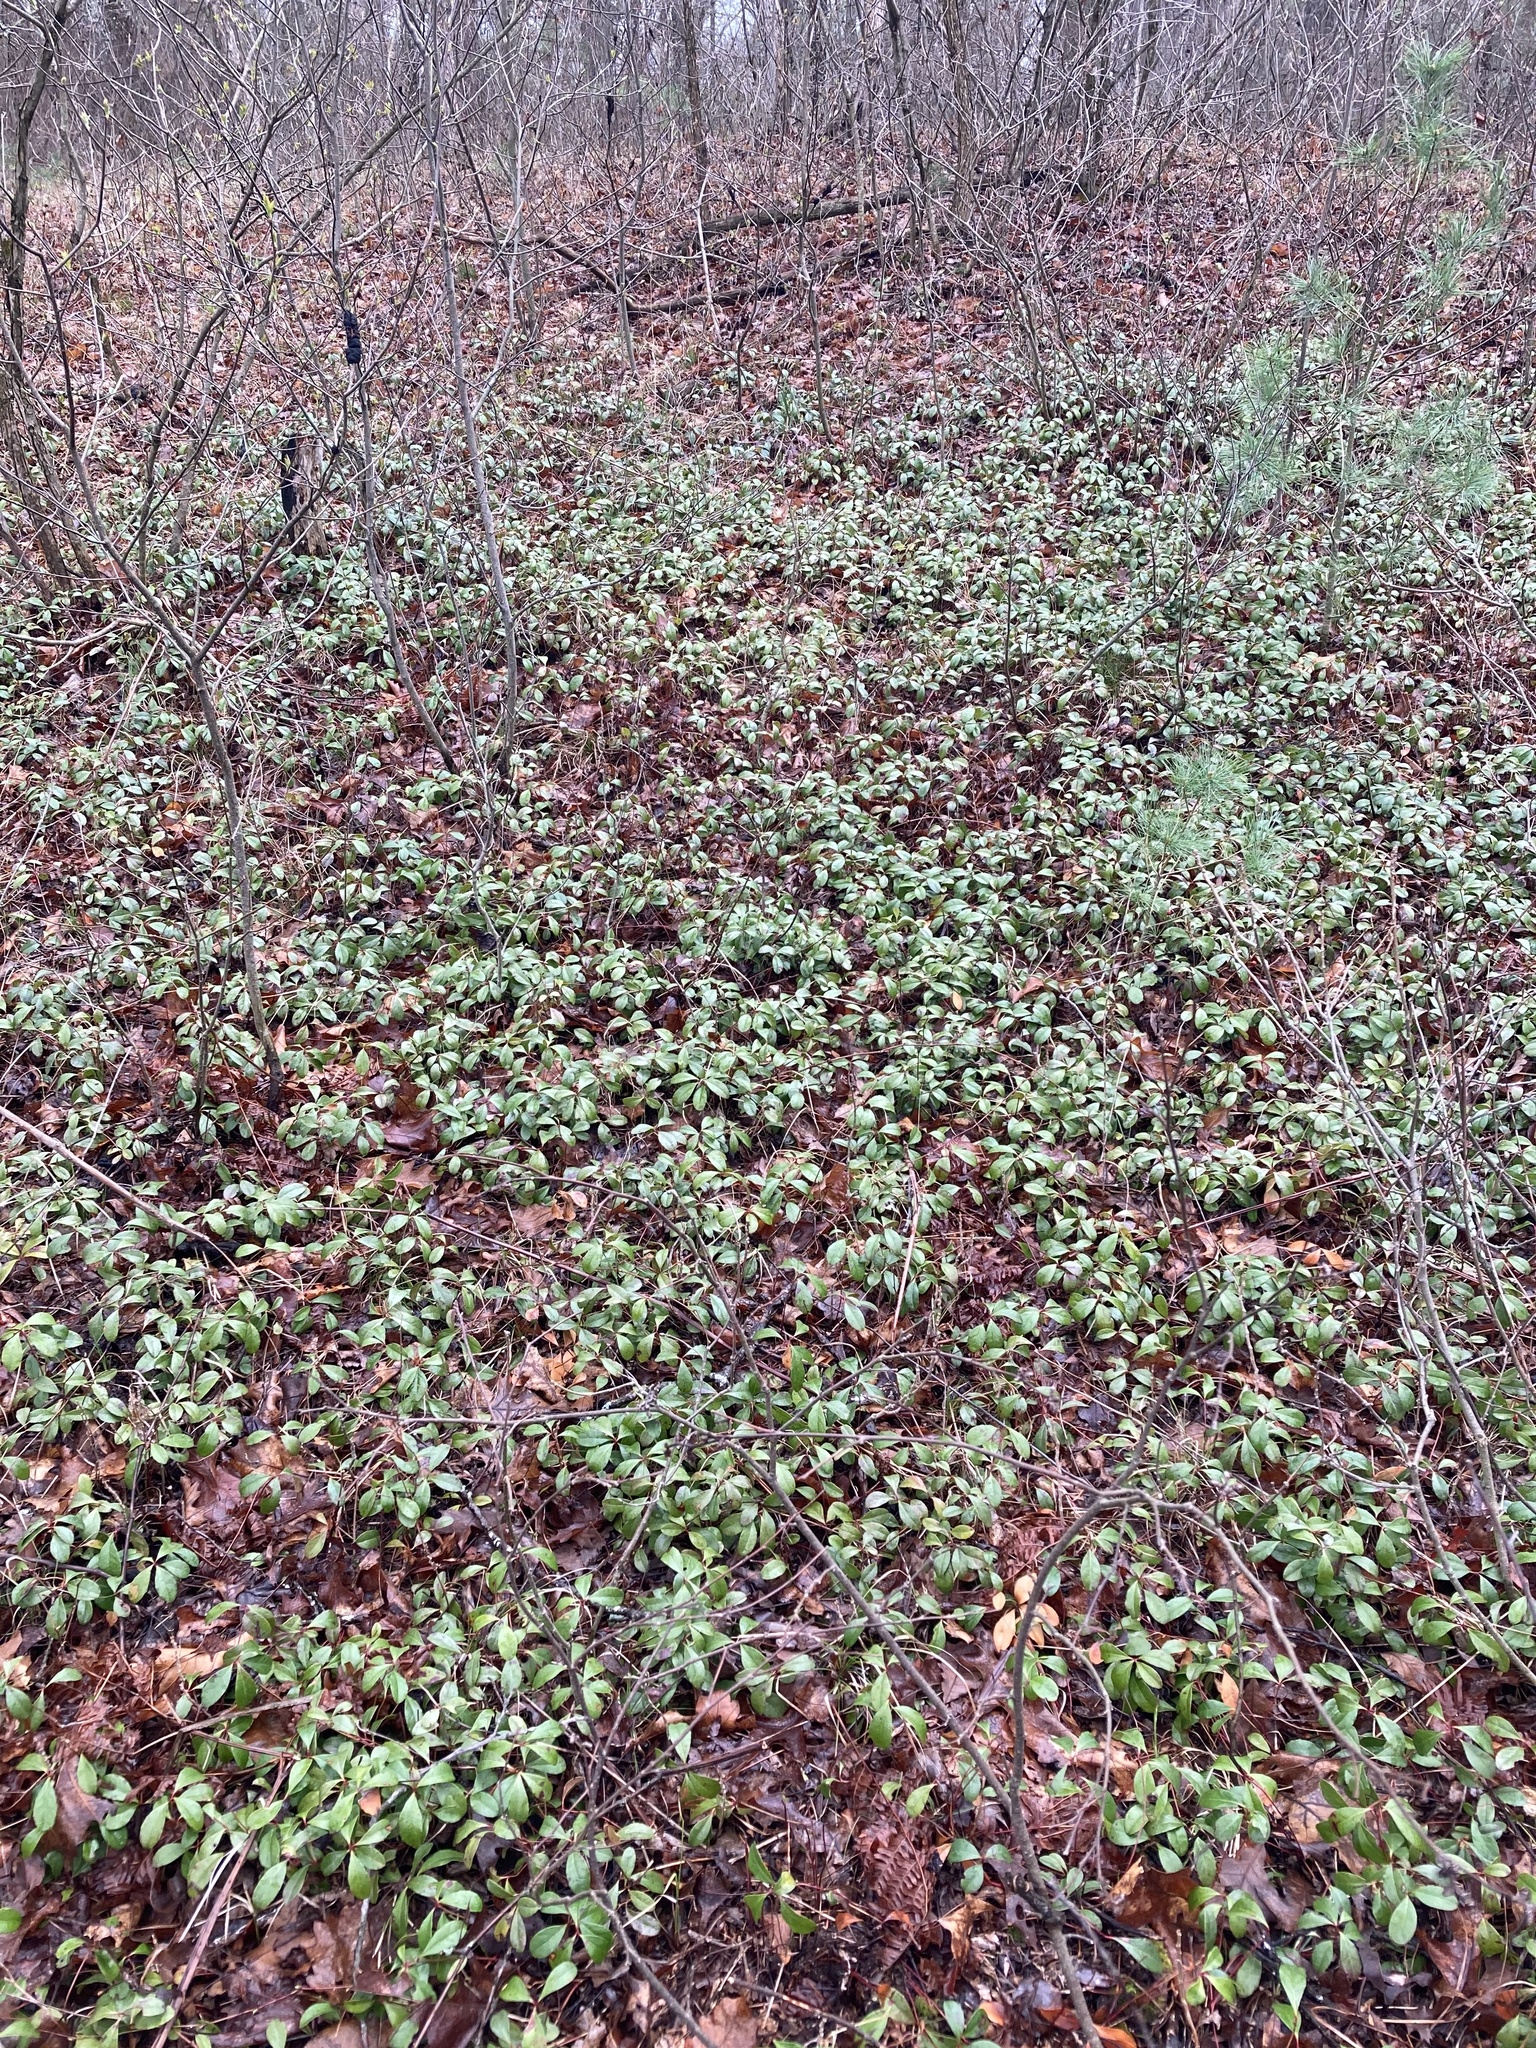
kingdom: Plantae
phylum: Tracheophyta
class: Magnoliopsida
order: Ericales
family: Ericaceae
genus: Gaultheria
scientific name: Gaultheria procumbens
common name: Checkerberry
